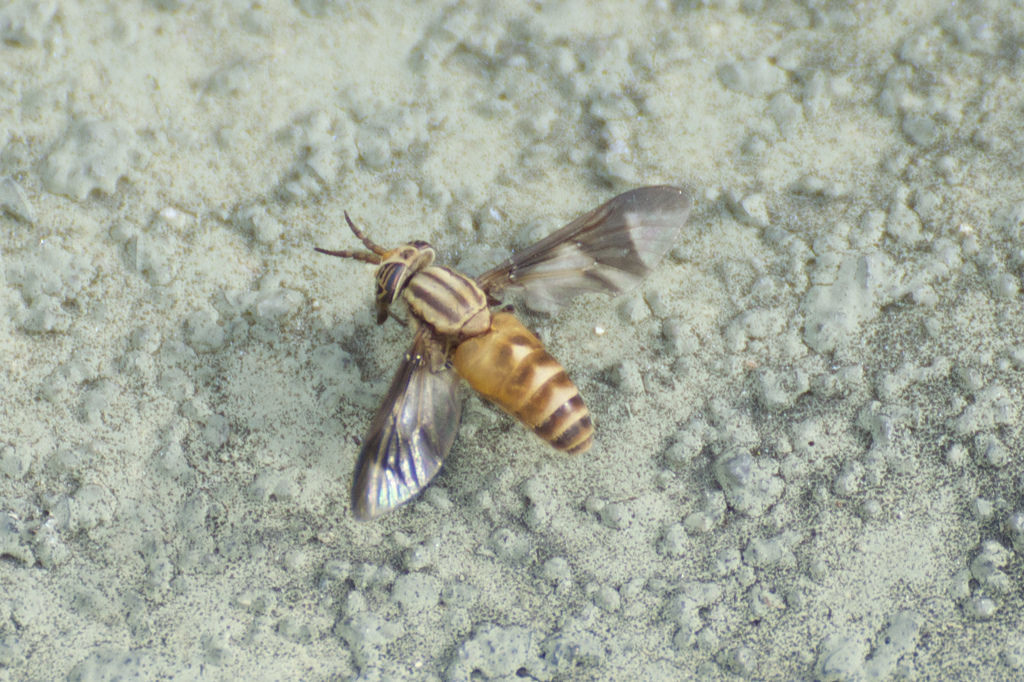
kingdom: Animalia
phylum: Arthropoda
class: Insecta
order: Diptera
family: Tabanidae
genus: Chrysops
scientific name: Chrysops flavidus
